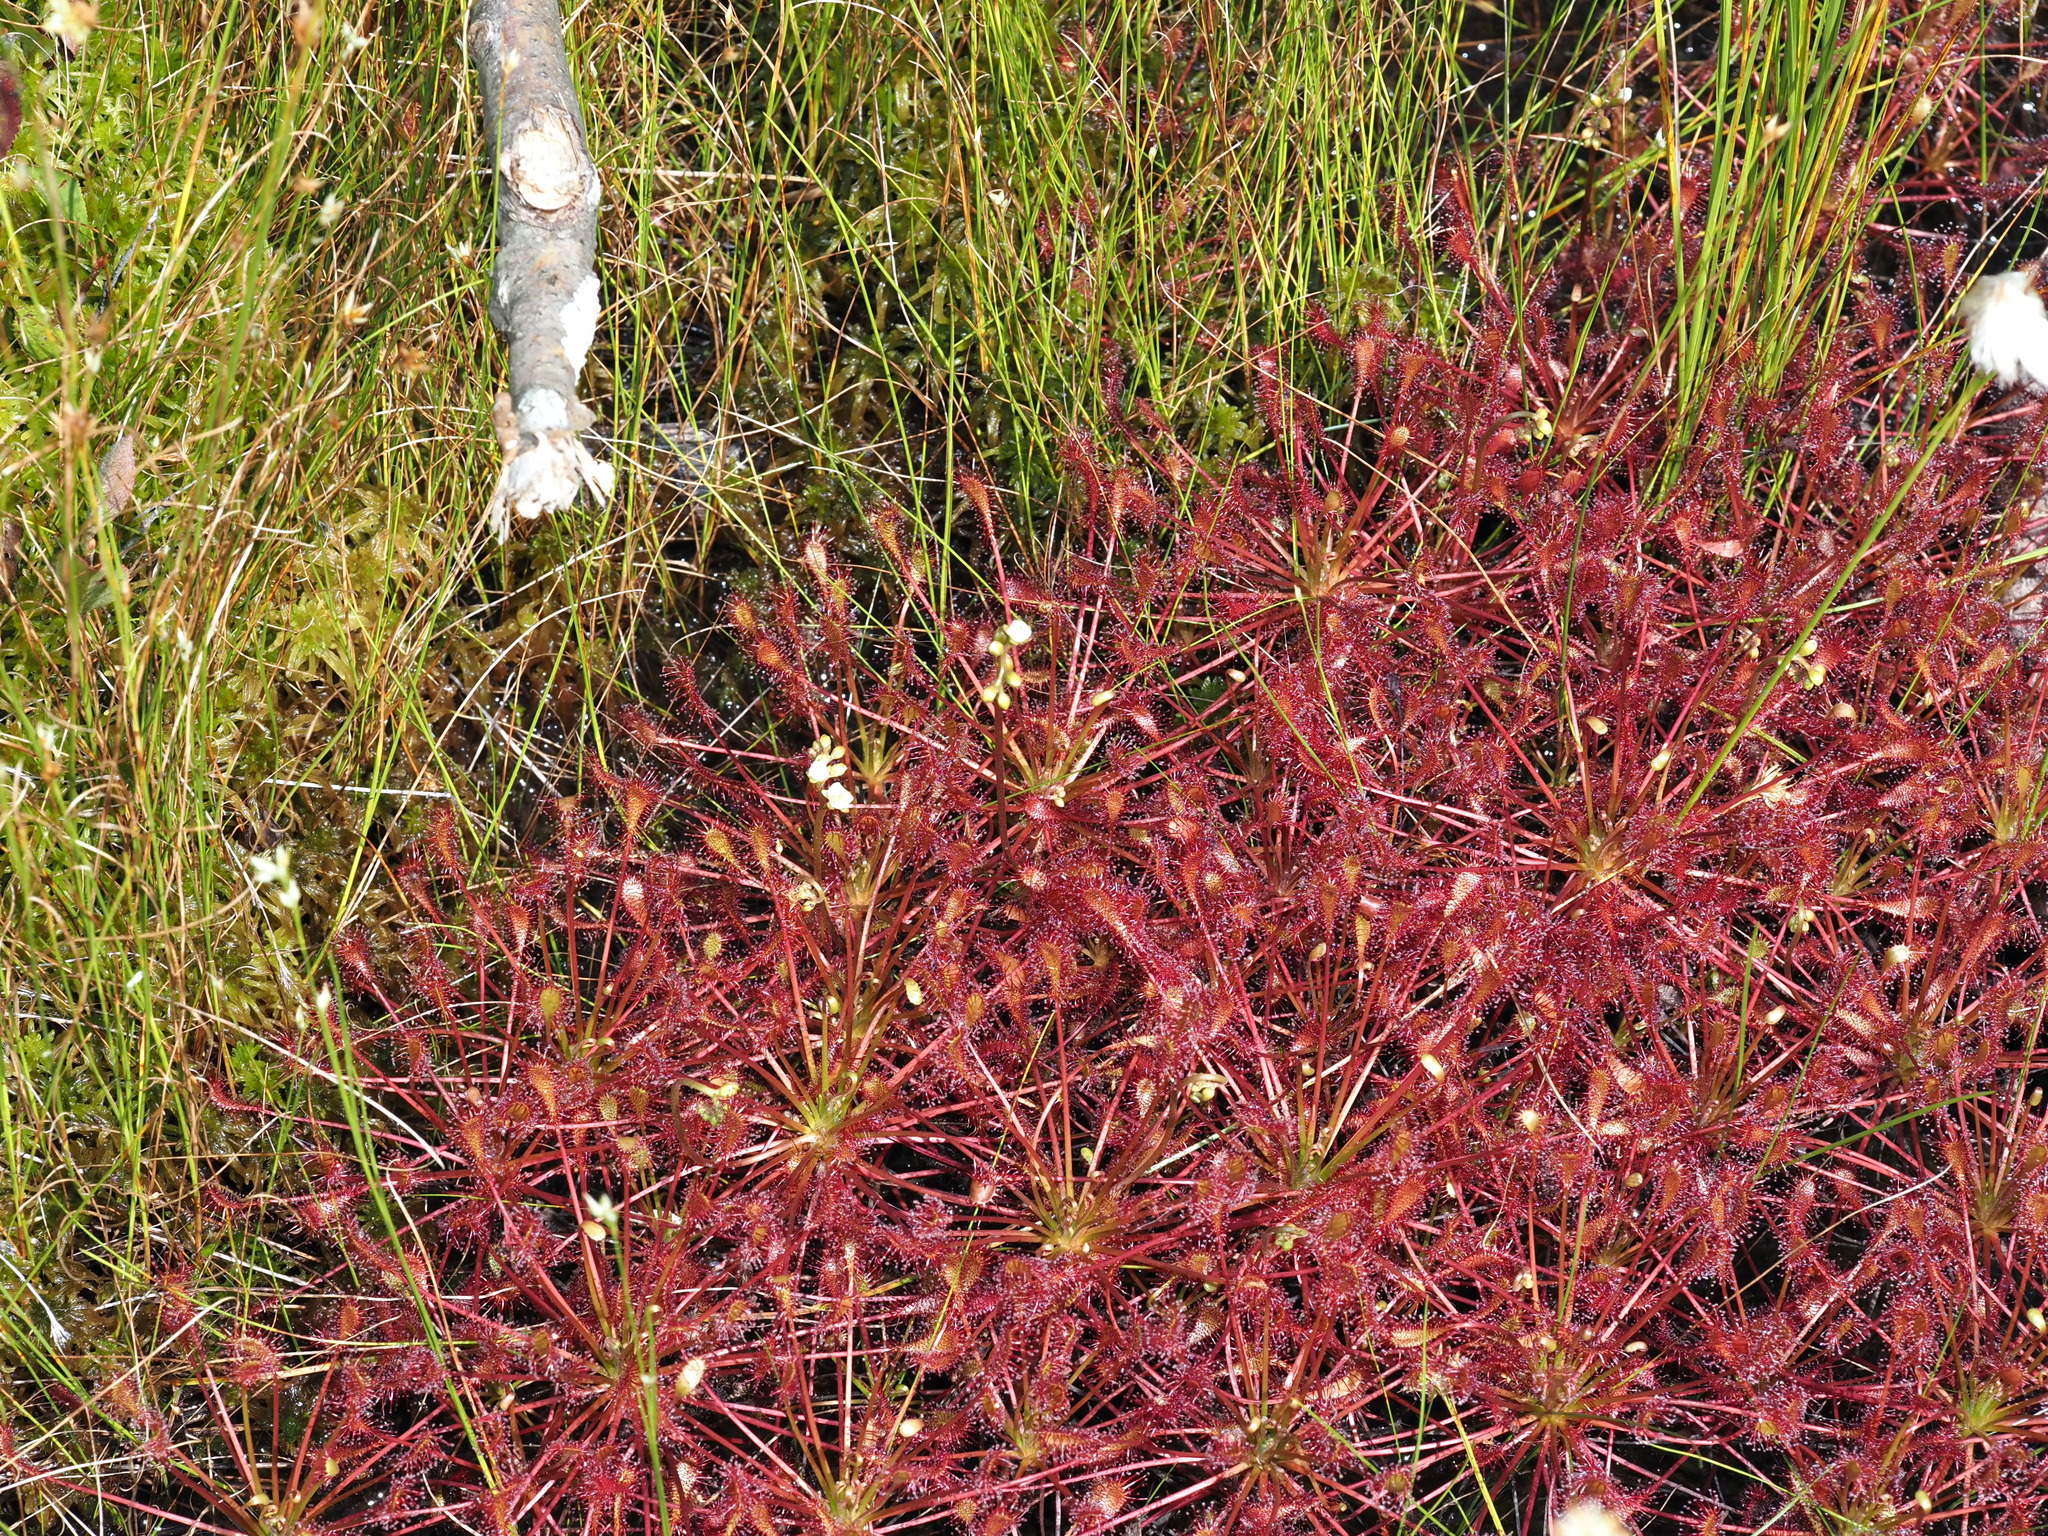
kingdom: Plantae
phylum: Tracheophyta
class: Magnoliopsida
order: Caryophyllales
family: Droseraceae
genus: Drosera
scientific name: Drosera intermedia
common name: Oblong-leaved sundew
